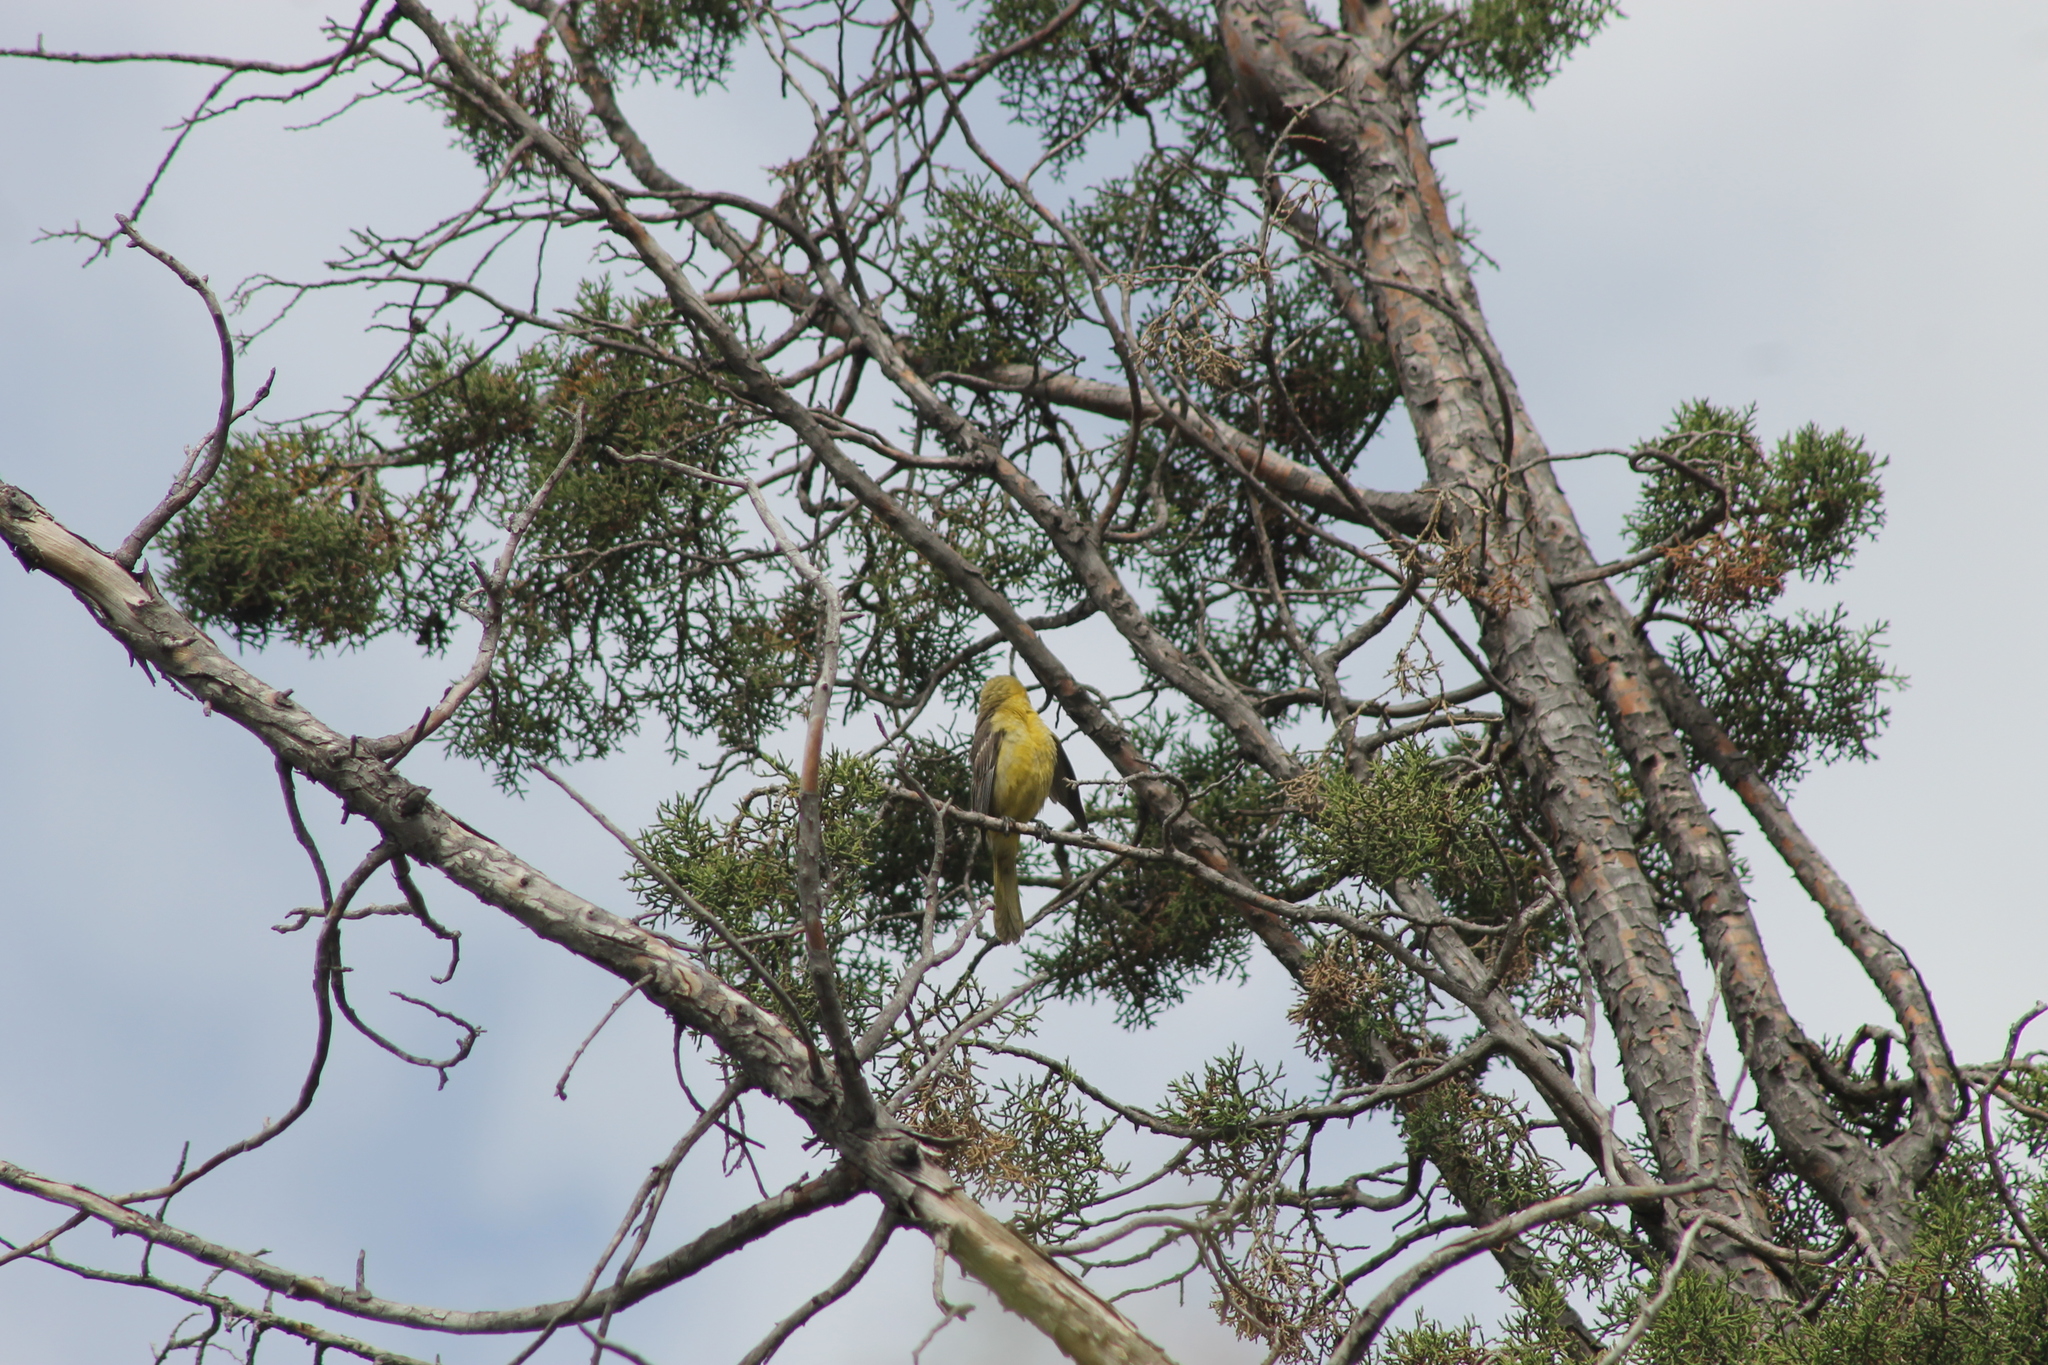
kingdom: Animalia
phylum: Chordata
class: Aves
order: Passeriformes
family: Icteridae
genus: Icterus
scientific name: Icterus cucullatus
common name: Hooded oriole
